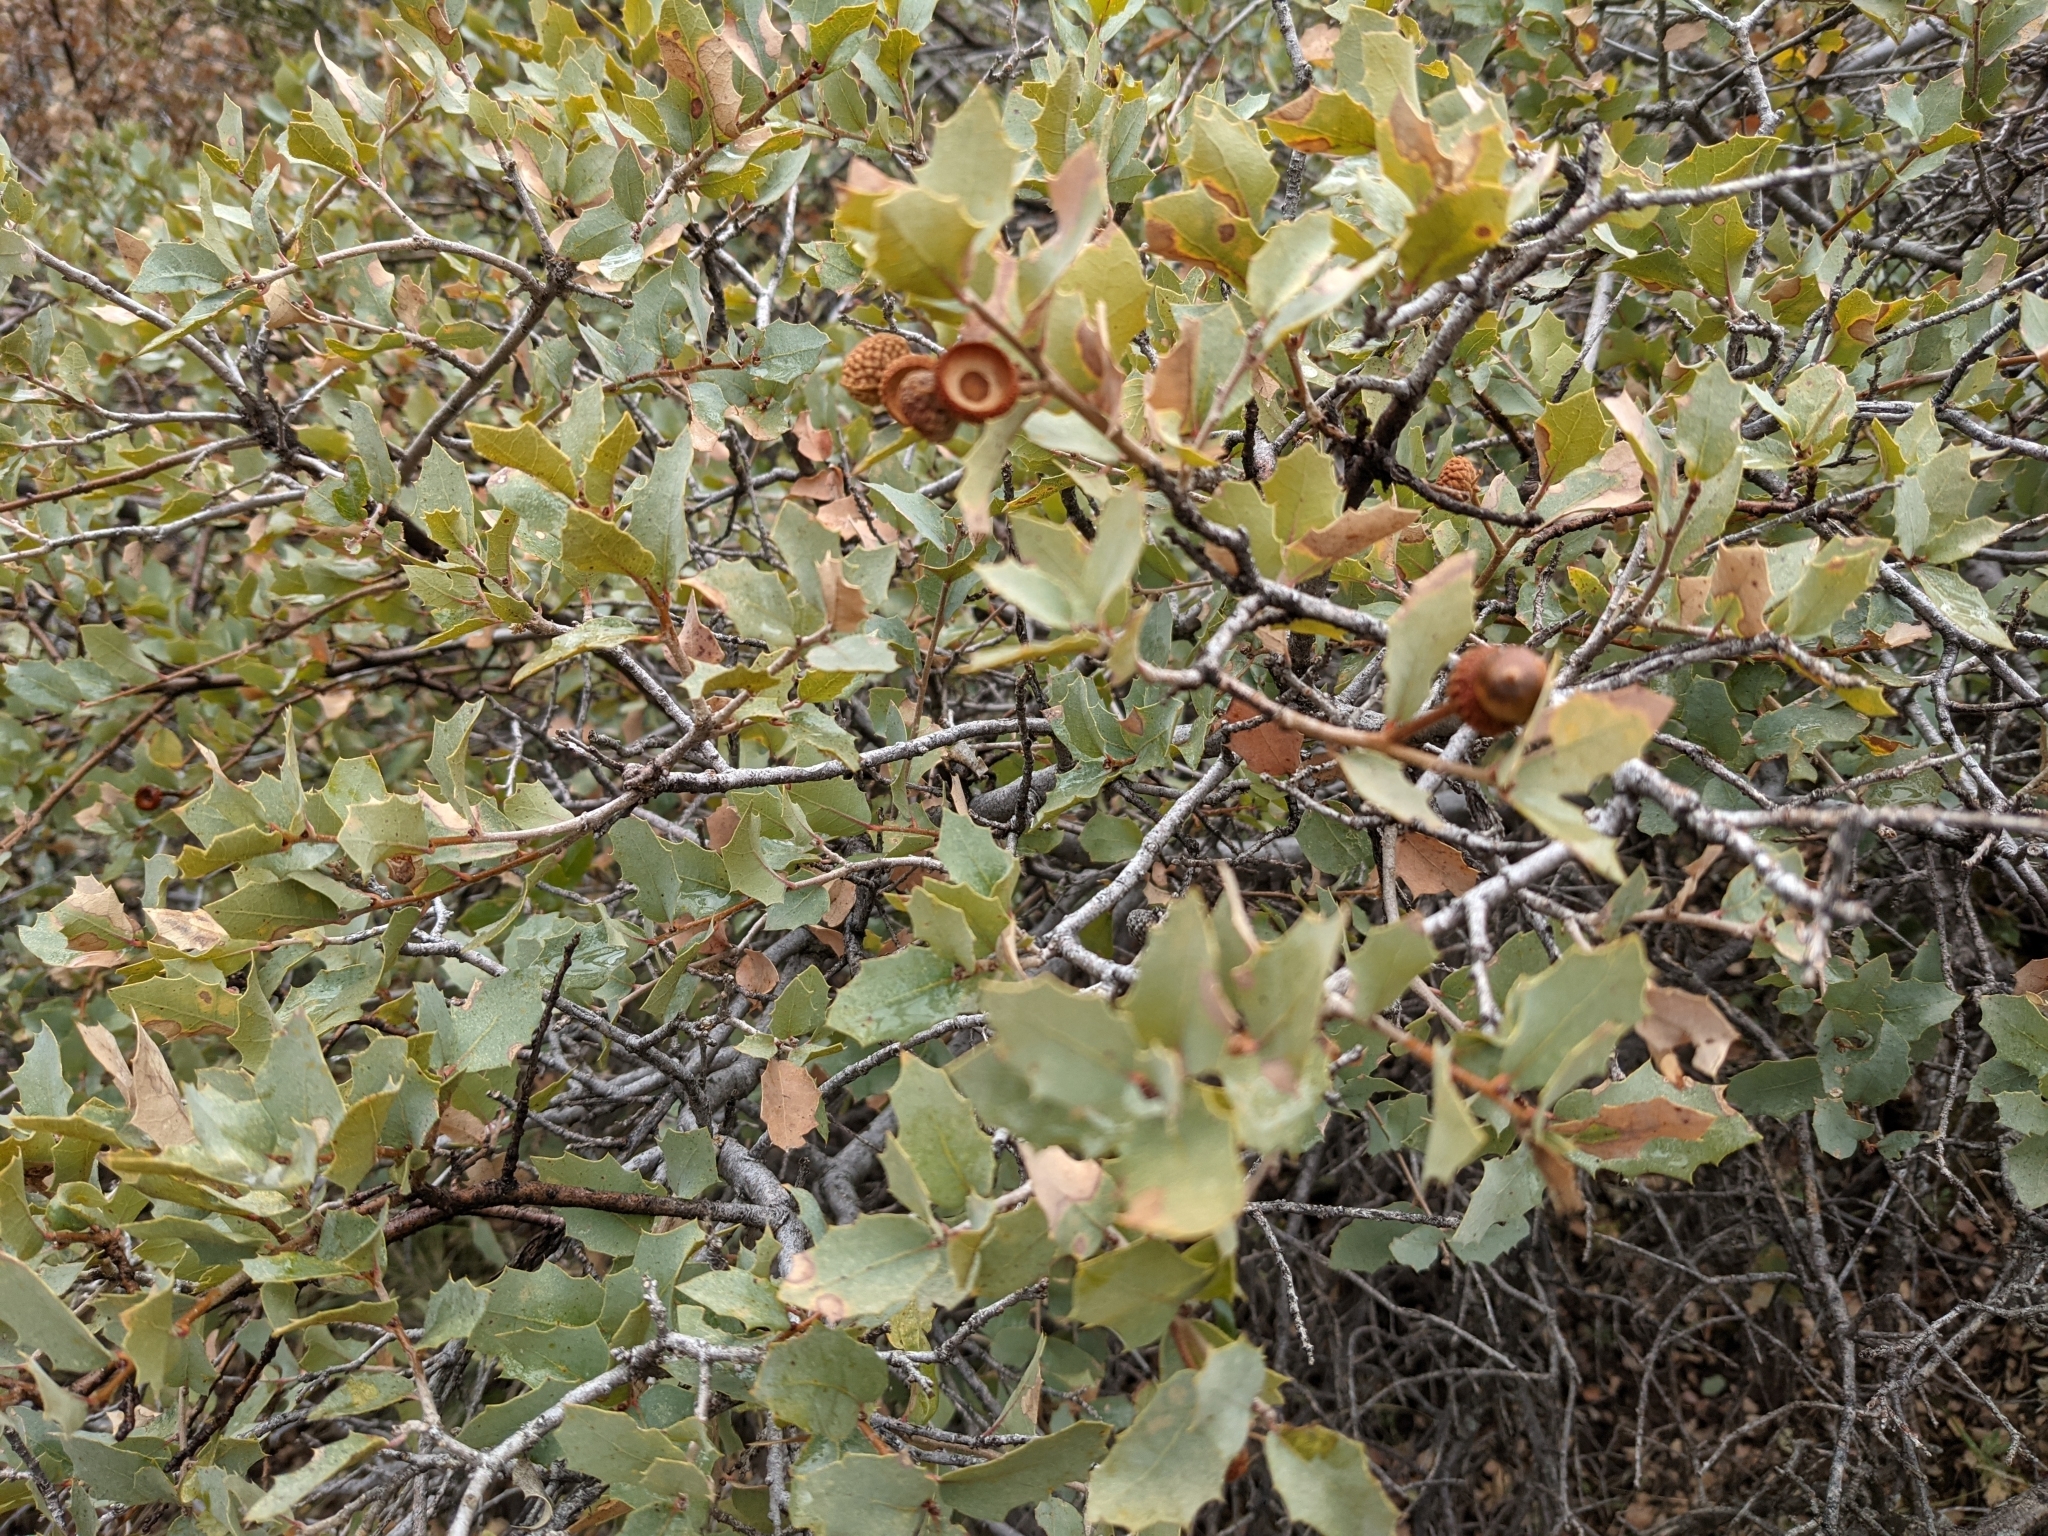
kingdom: Plantae
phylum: Tracheophyta
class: Magnoliopsida
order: Fagales
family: Fagaceae
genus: Quercus
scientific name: Quercus turbinella
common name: Sonoran scrub oak
